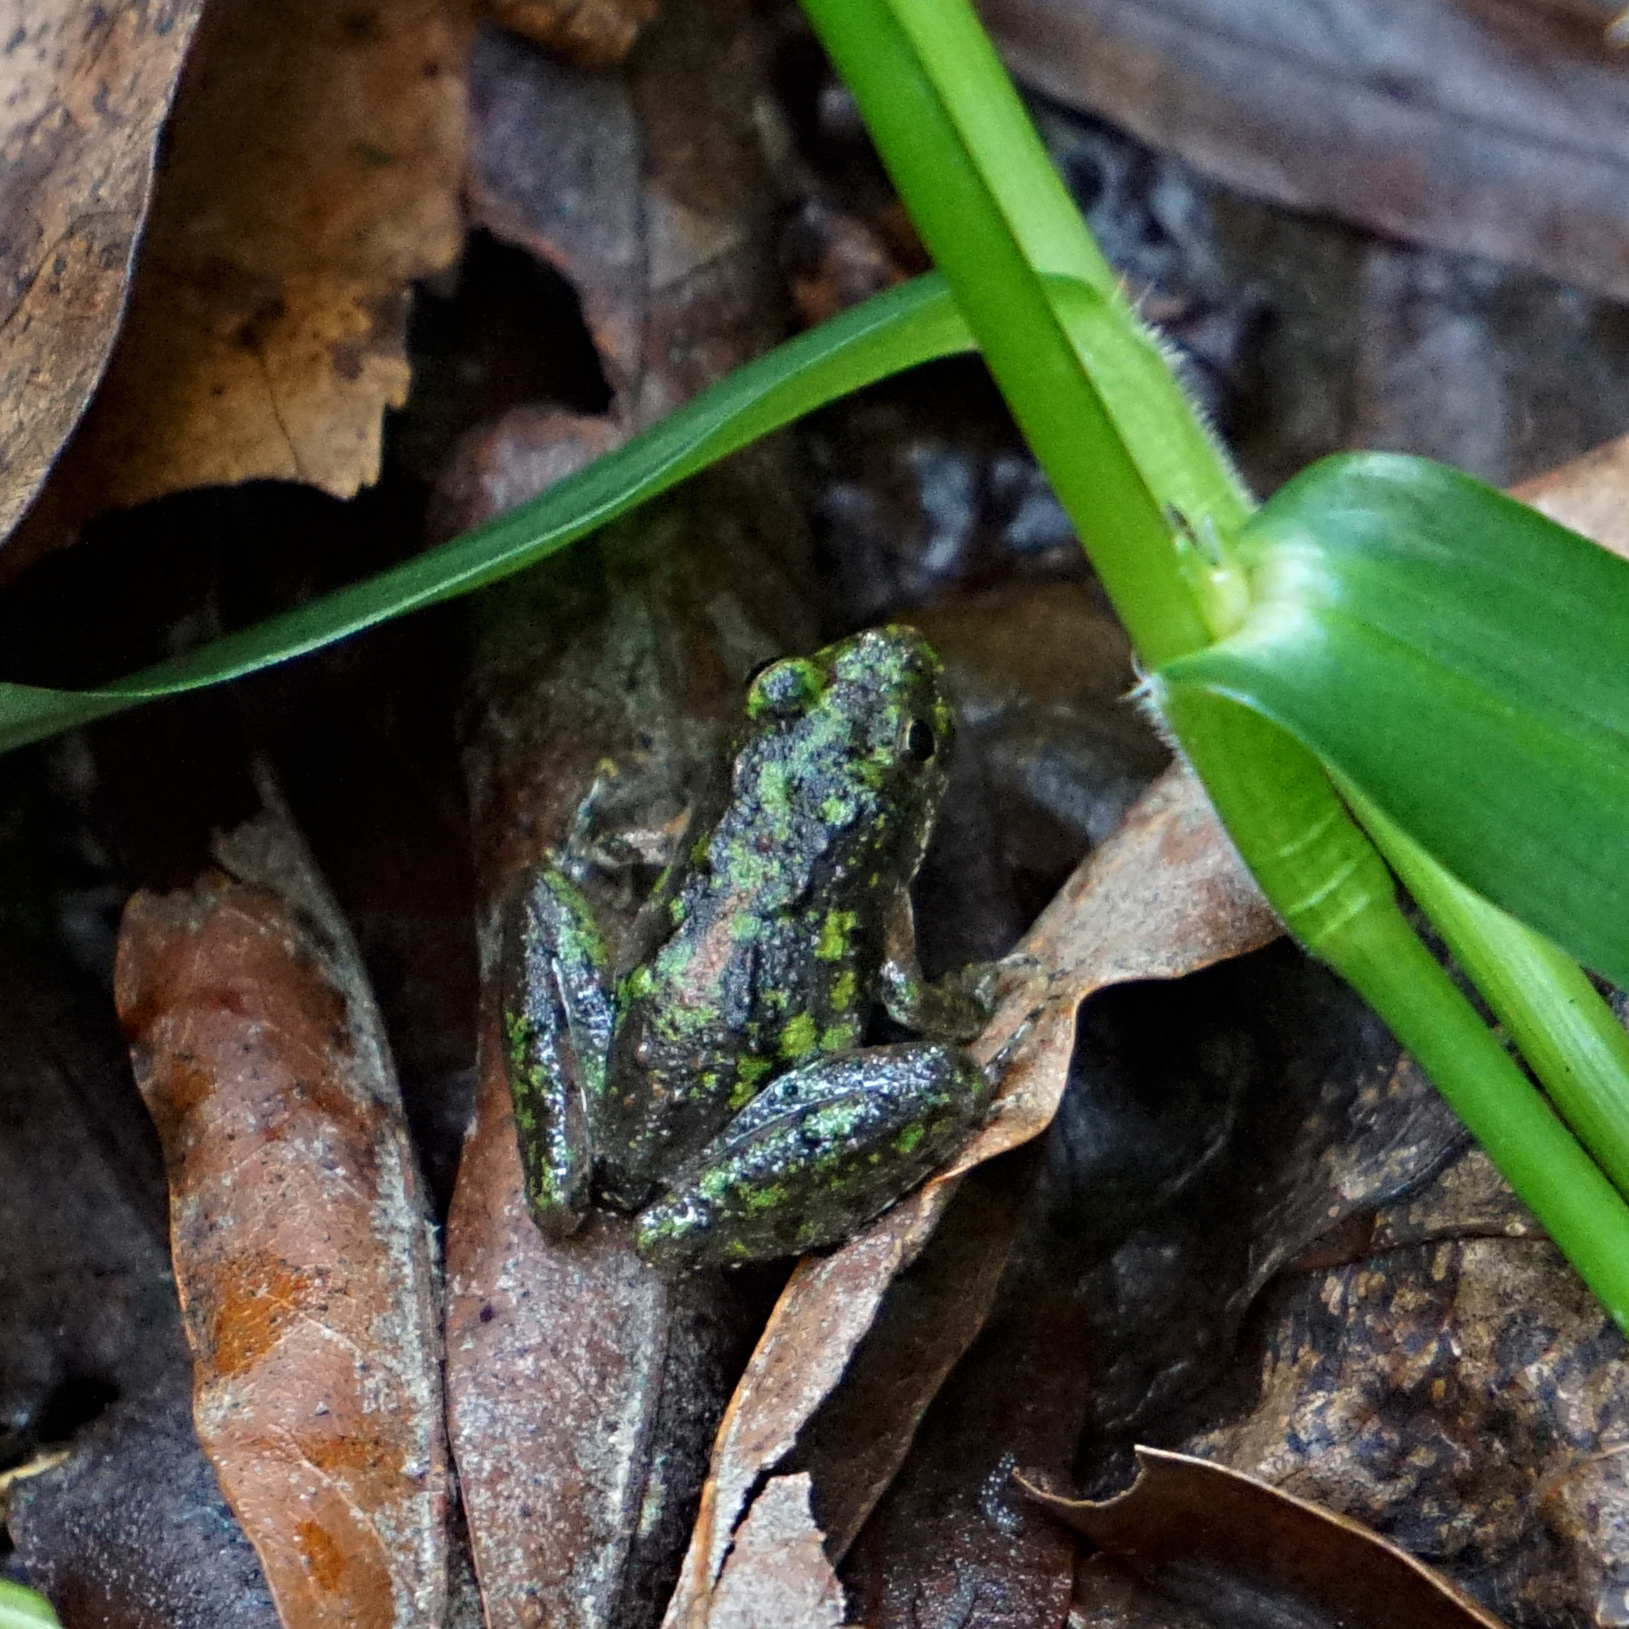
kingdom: Animalia
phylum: Chordata
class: Amphibia
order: Anura
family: Hylidae
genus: Acris
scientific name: Acris crepitans
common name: Northern cricket frog
